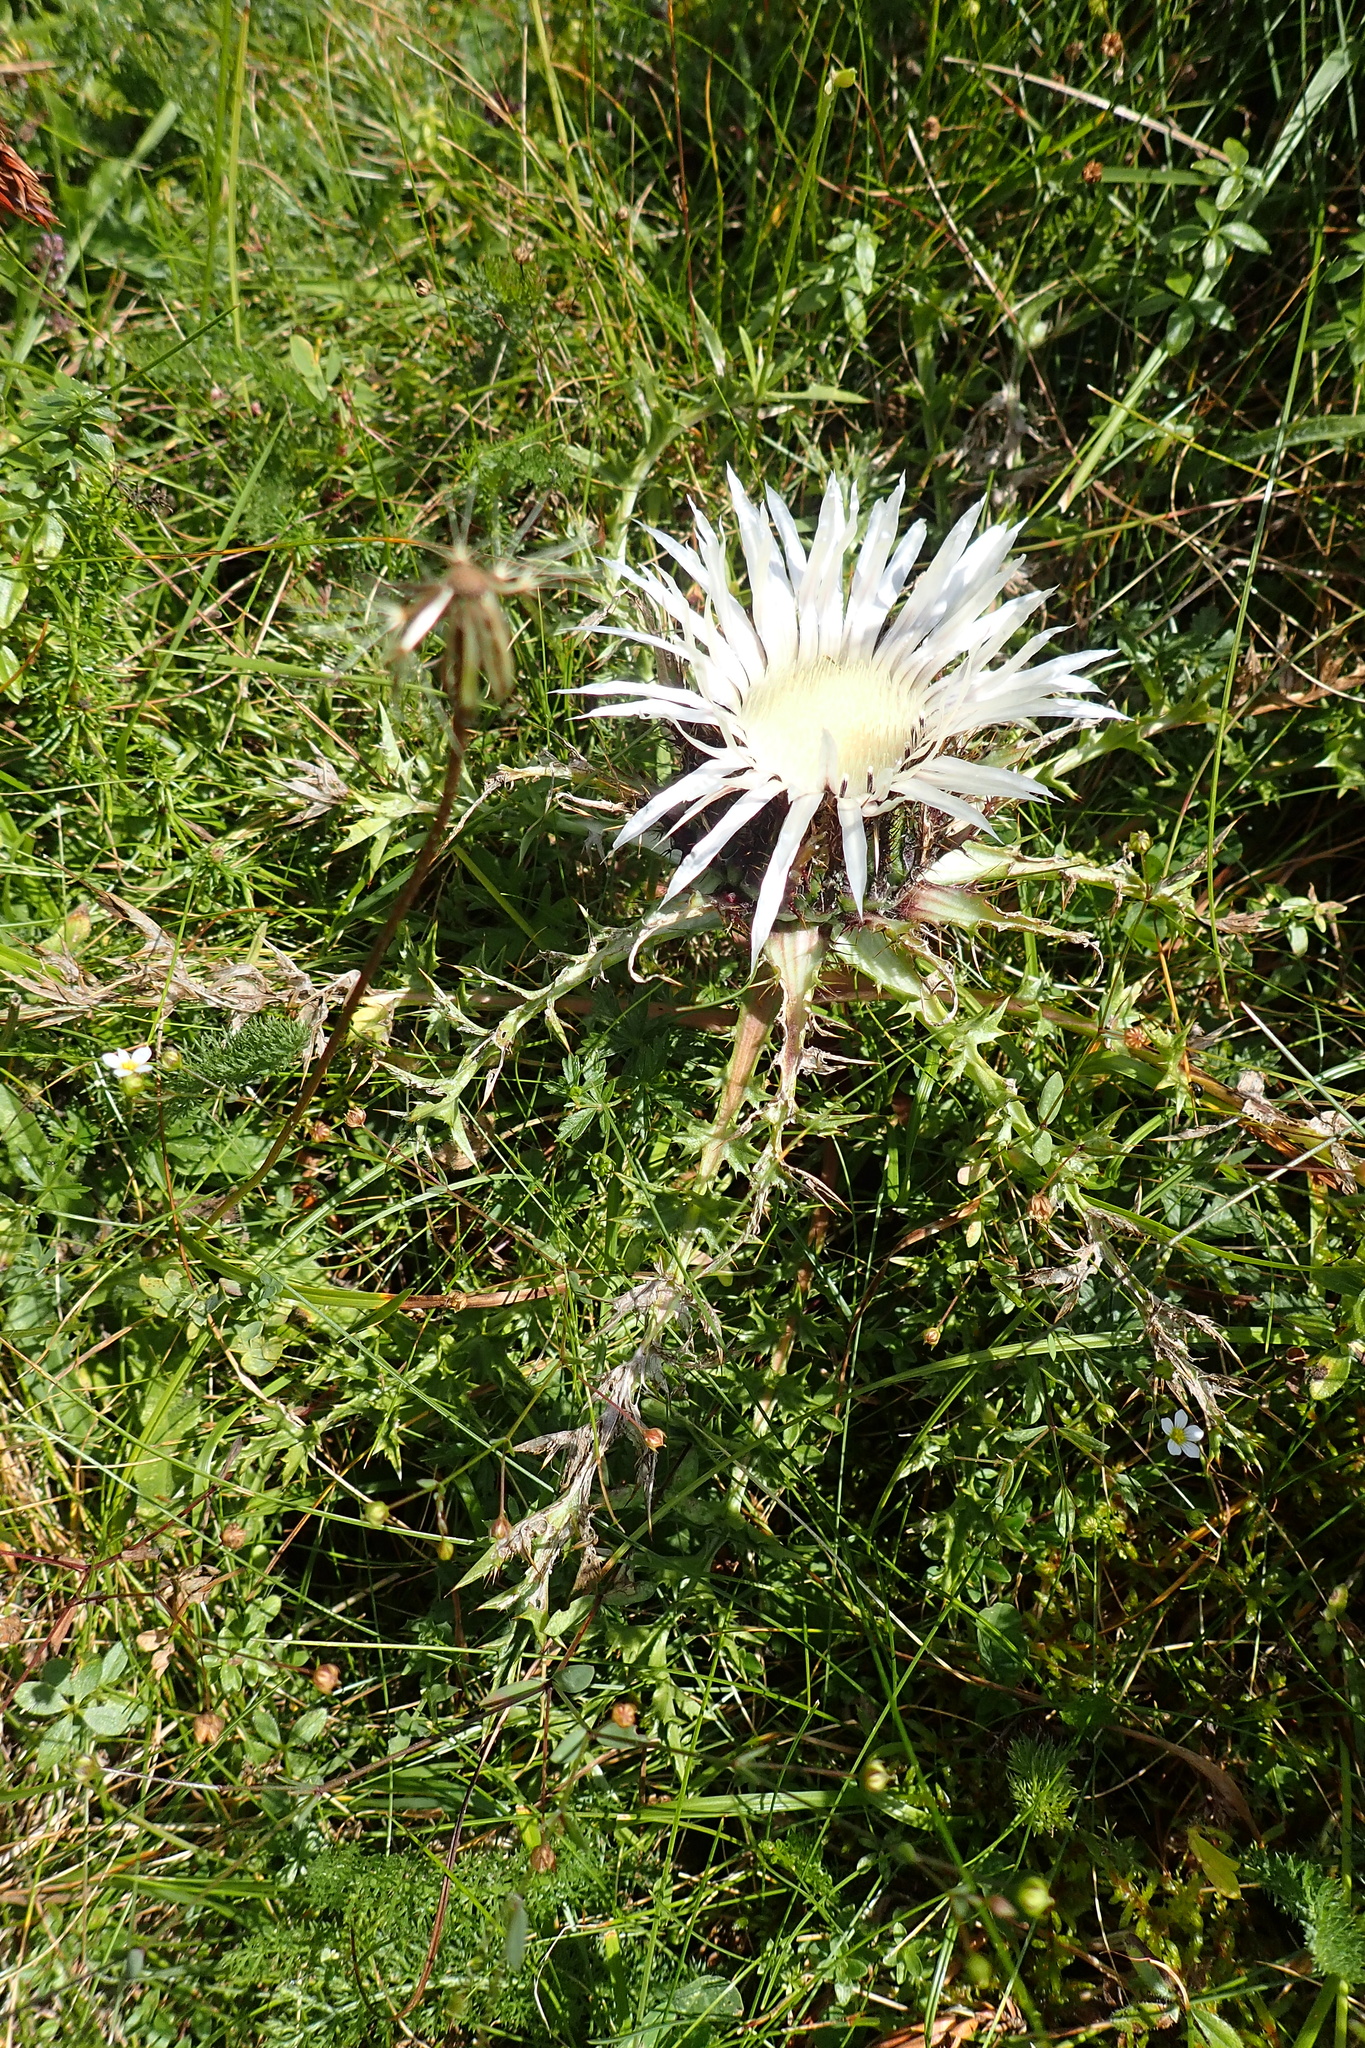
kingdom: Plantae
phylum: Tracheophyta
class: Magnoliopsida
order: Asterales
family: Asteraceae
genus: Carlina
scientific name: Carlina acaulis
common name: Stemless carline thistle
